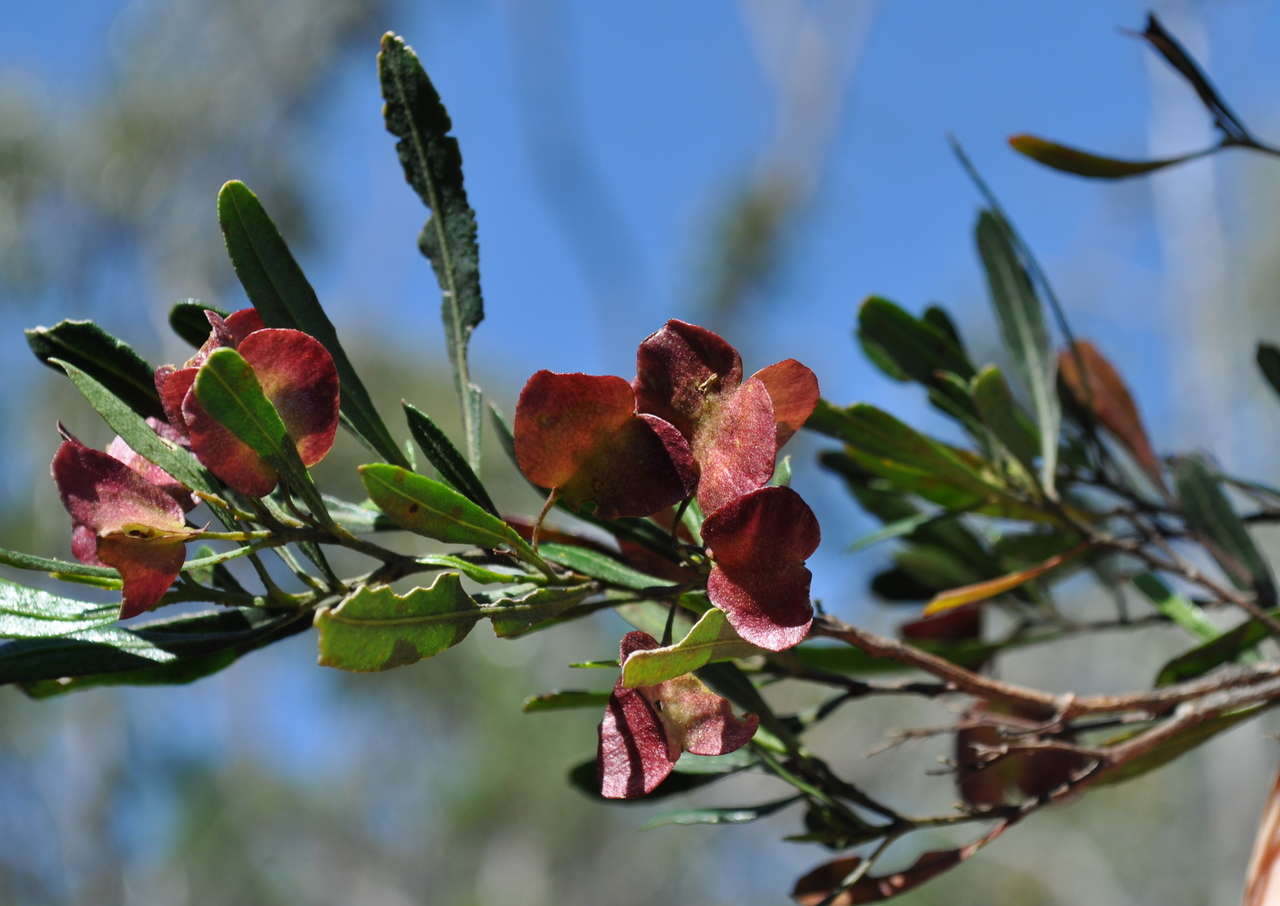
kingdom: Plantae
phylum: Tracheophyta
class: Magnoliopsida
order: Sapindales
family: Sapindaceae
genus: Dodonaea
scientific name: Dodonaea viscosa
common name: Hopbush
